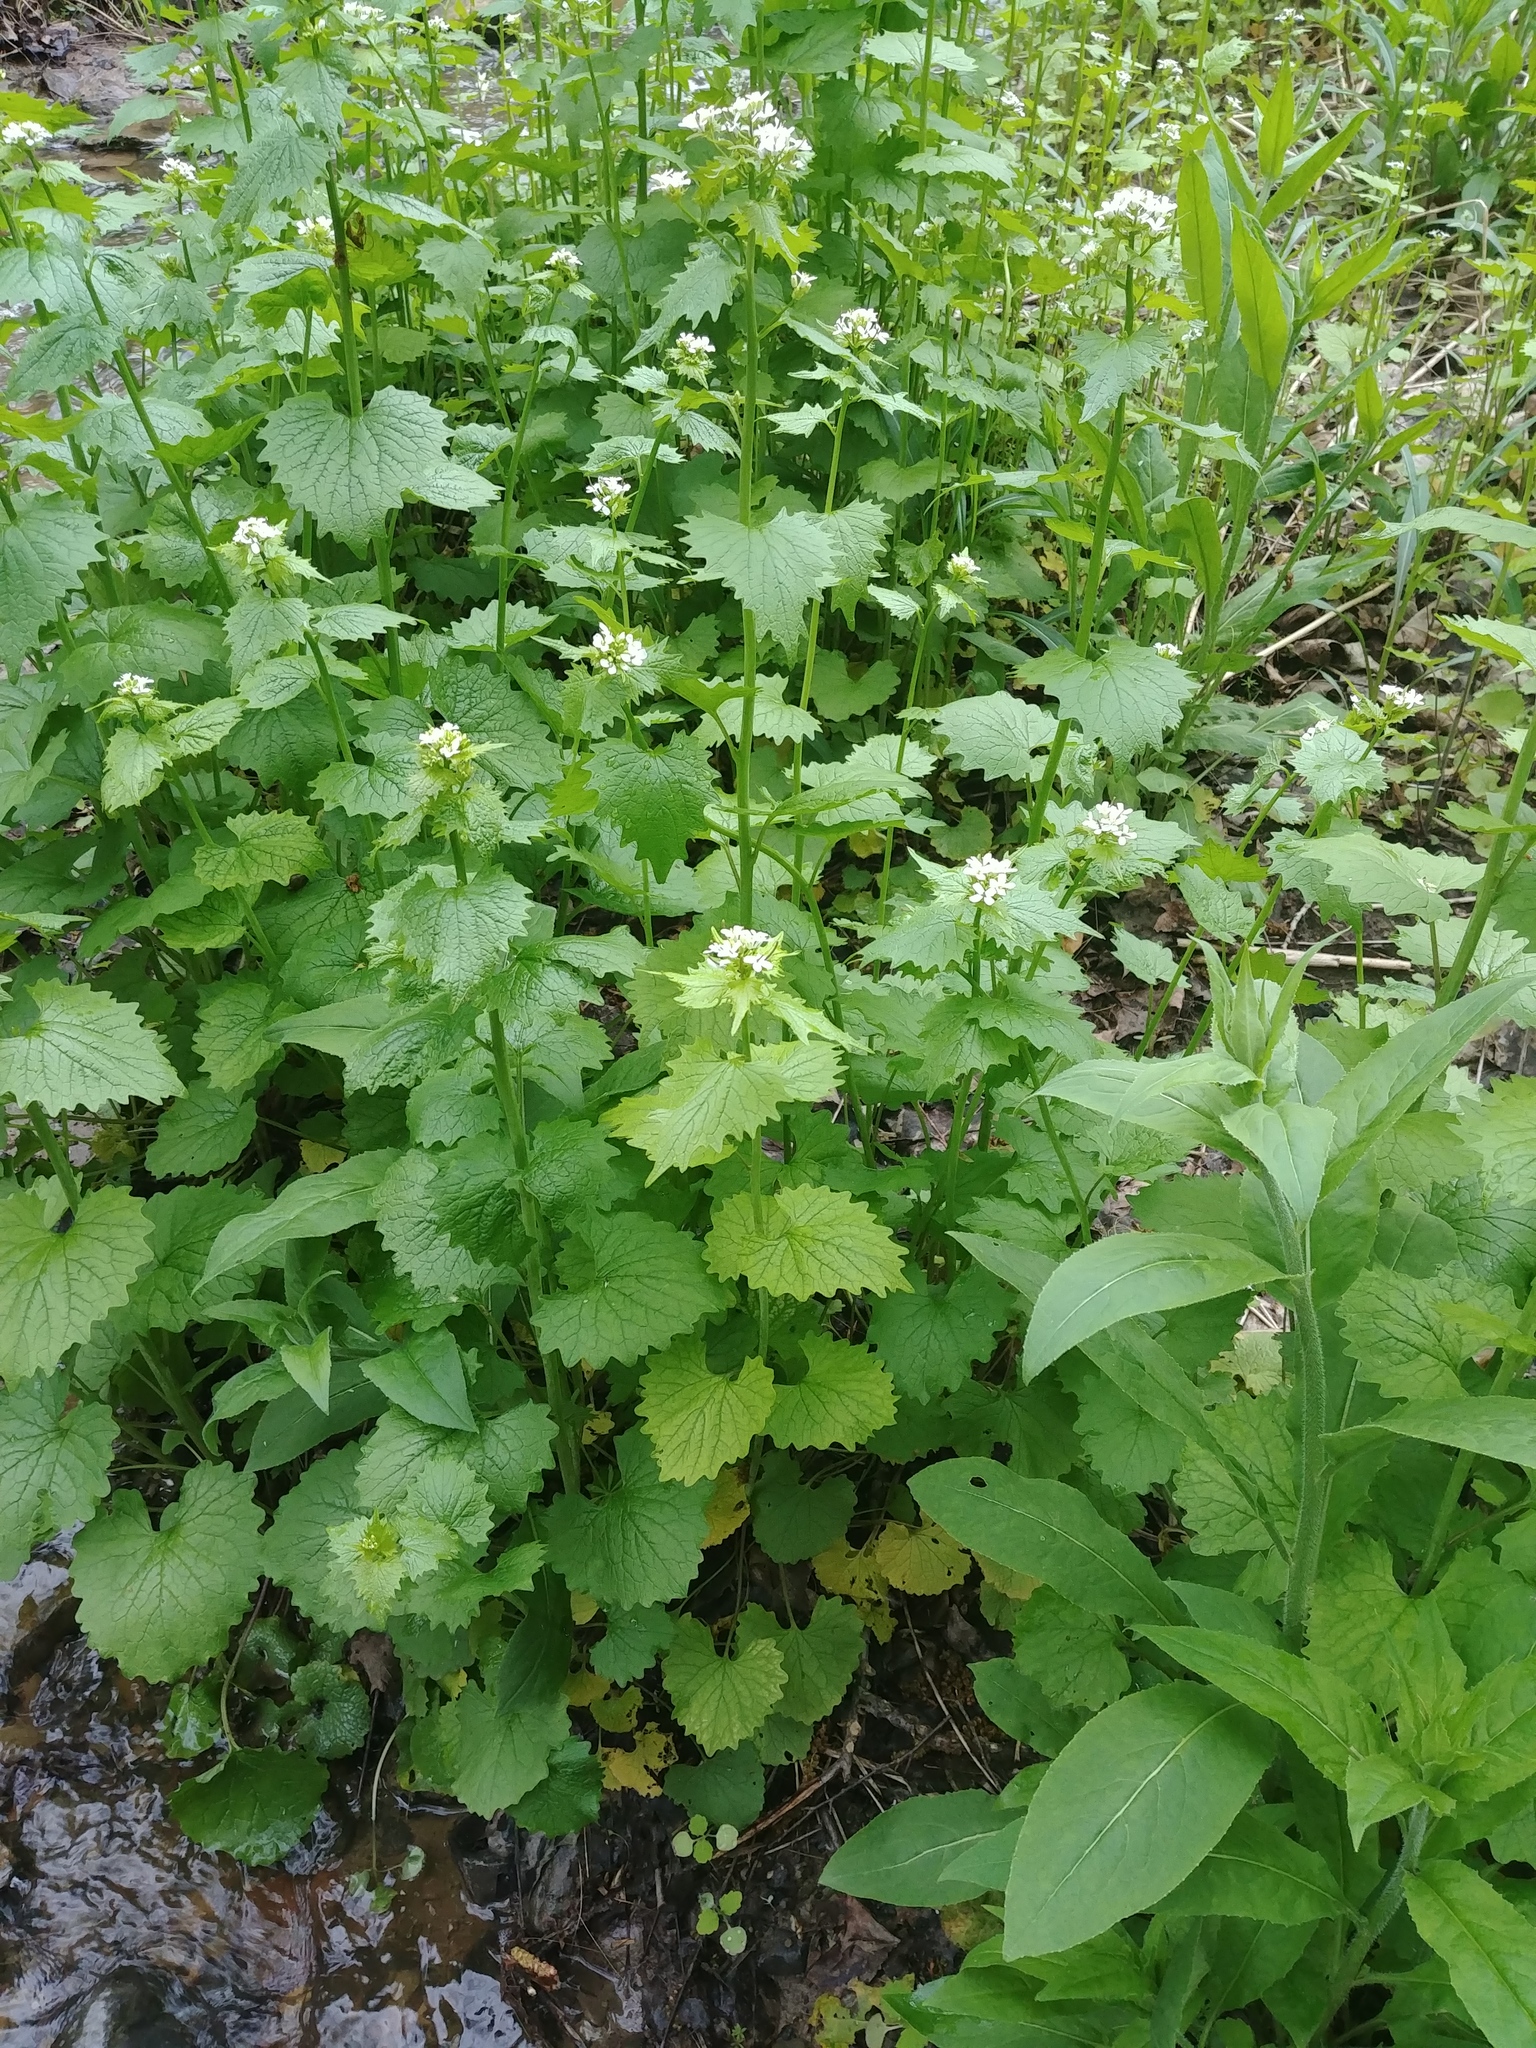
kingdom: Plantae
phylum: Tracheophyta
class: Magnoliopsida
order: Brassicales
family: Brassicaceae
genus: Alliaria
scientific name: Alliaria petiolata
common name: Garlic mustard
